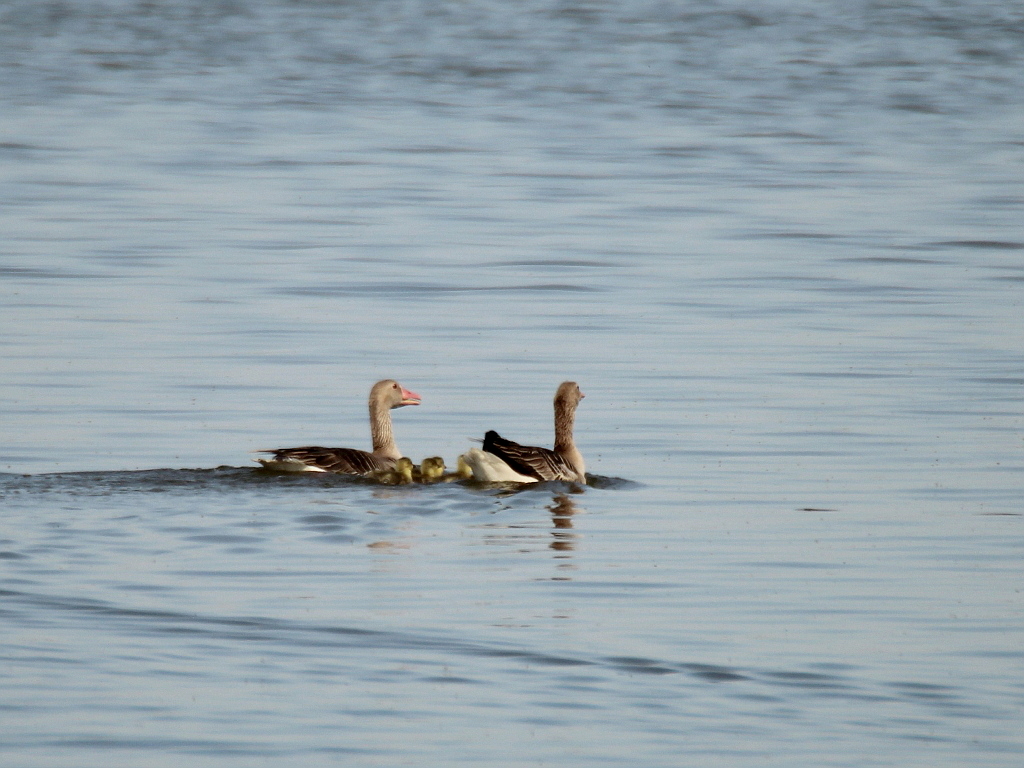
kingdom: Animalia
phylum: Chordata
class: Aves
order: Anseriformes
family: Anatidae
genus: Anser
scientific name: Anser anser
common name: Greylag goose
